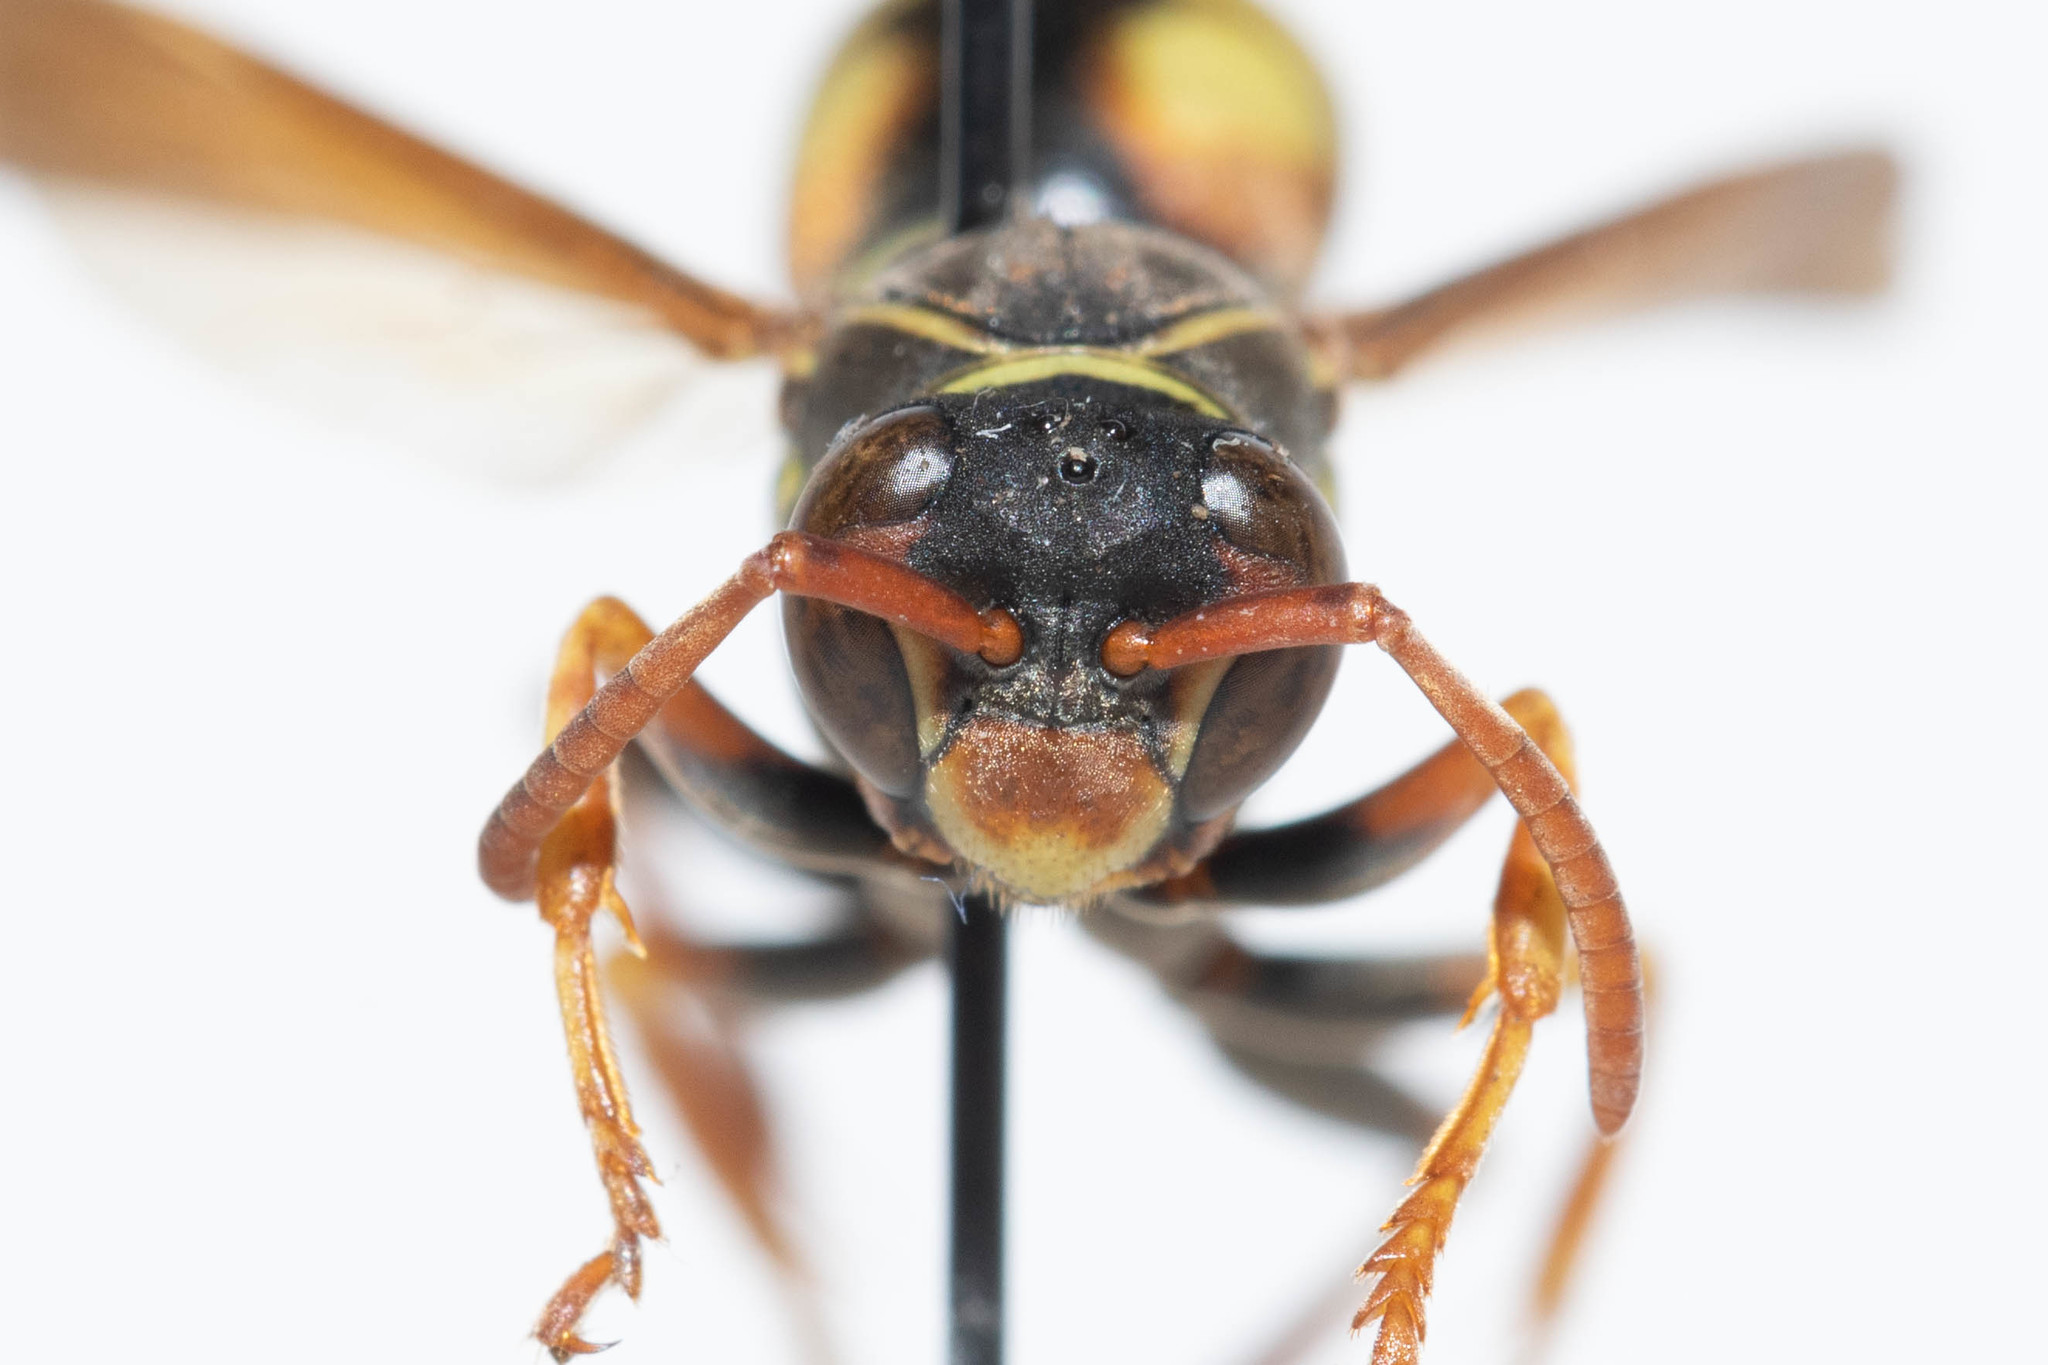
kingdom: Animalia
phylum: Arthropoda
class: Insecta
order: Hymenoptera
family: Eumenidae
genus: Polistes
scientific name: Polistes aurifer
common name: Paper wasp
